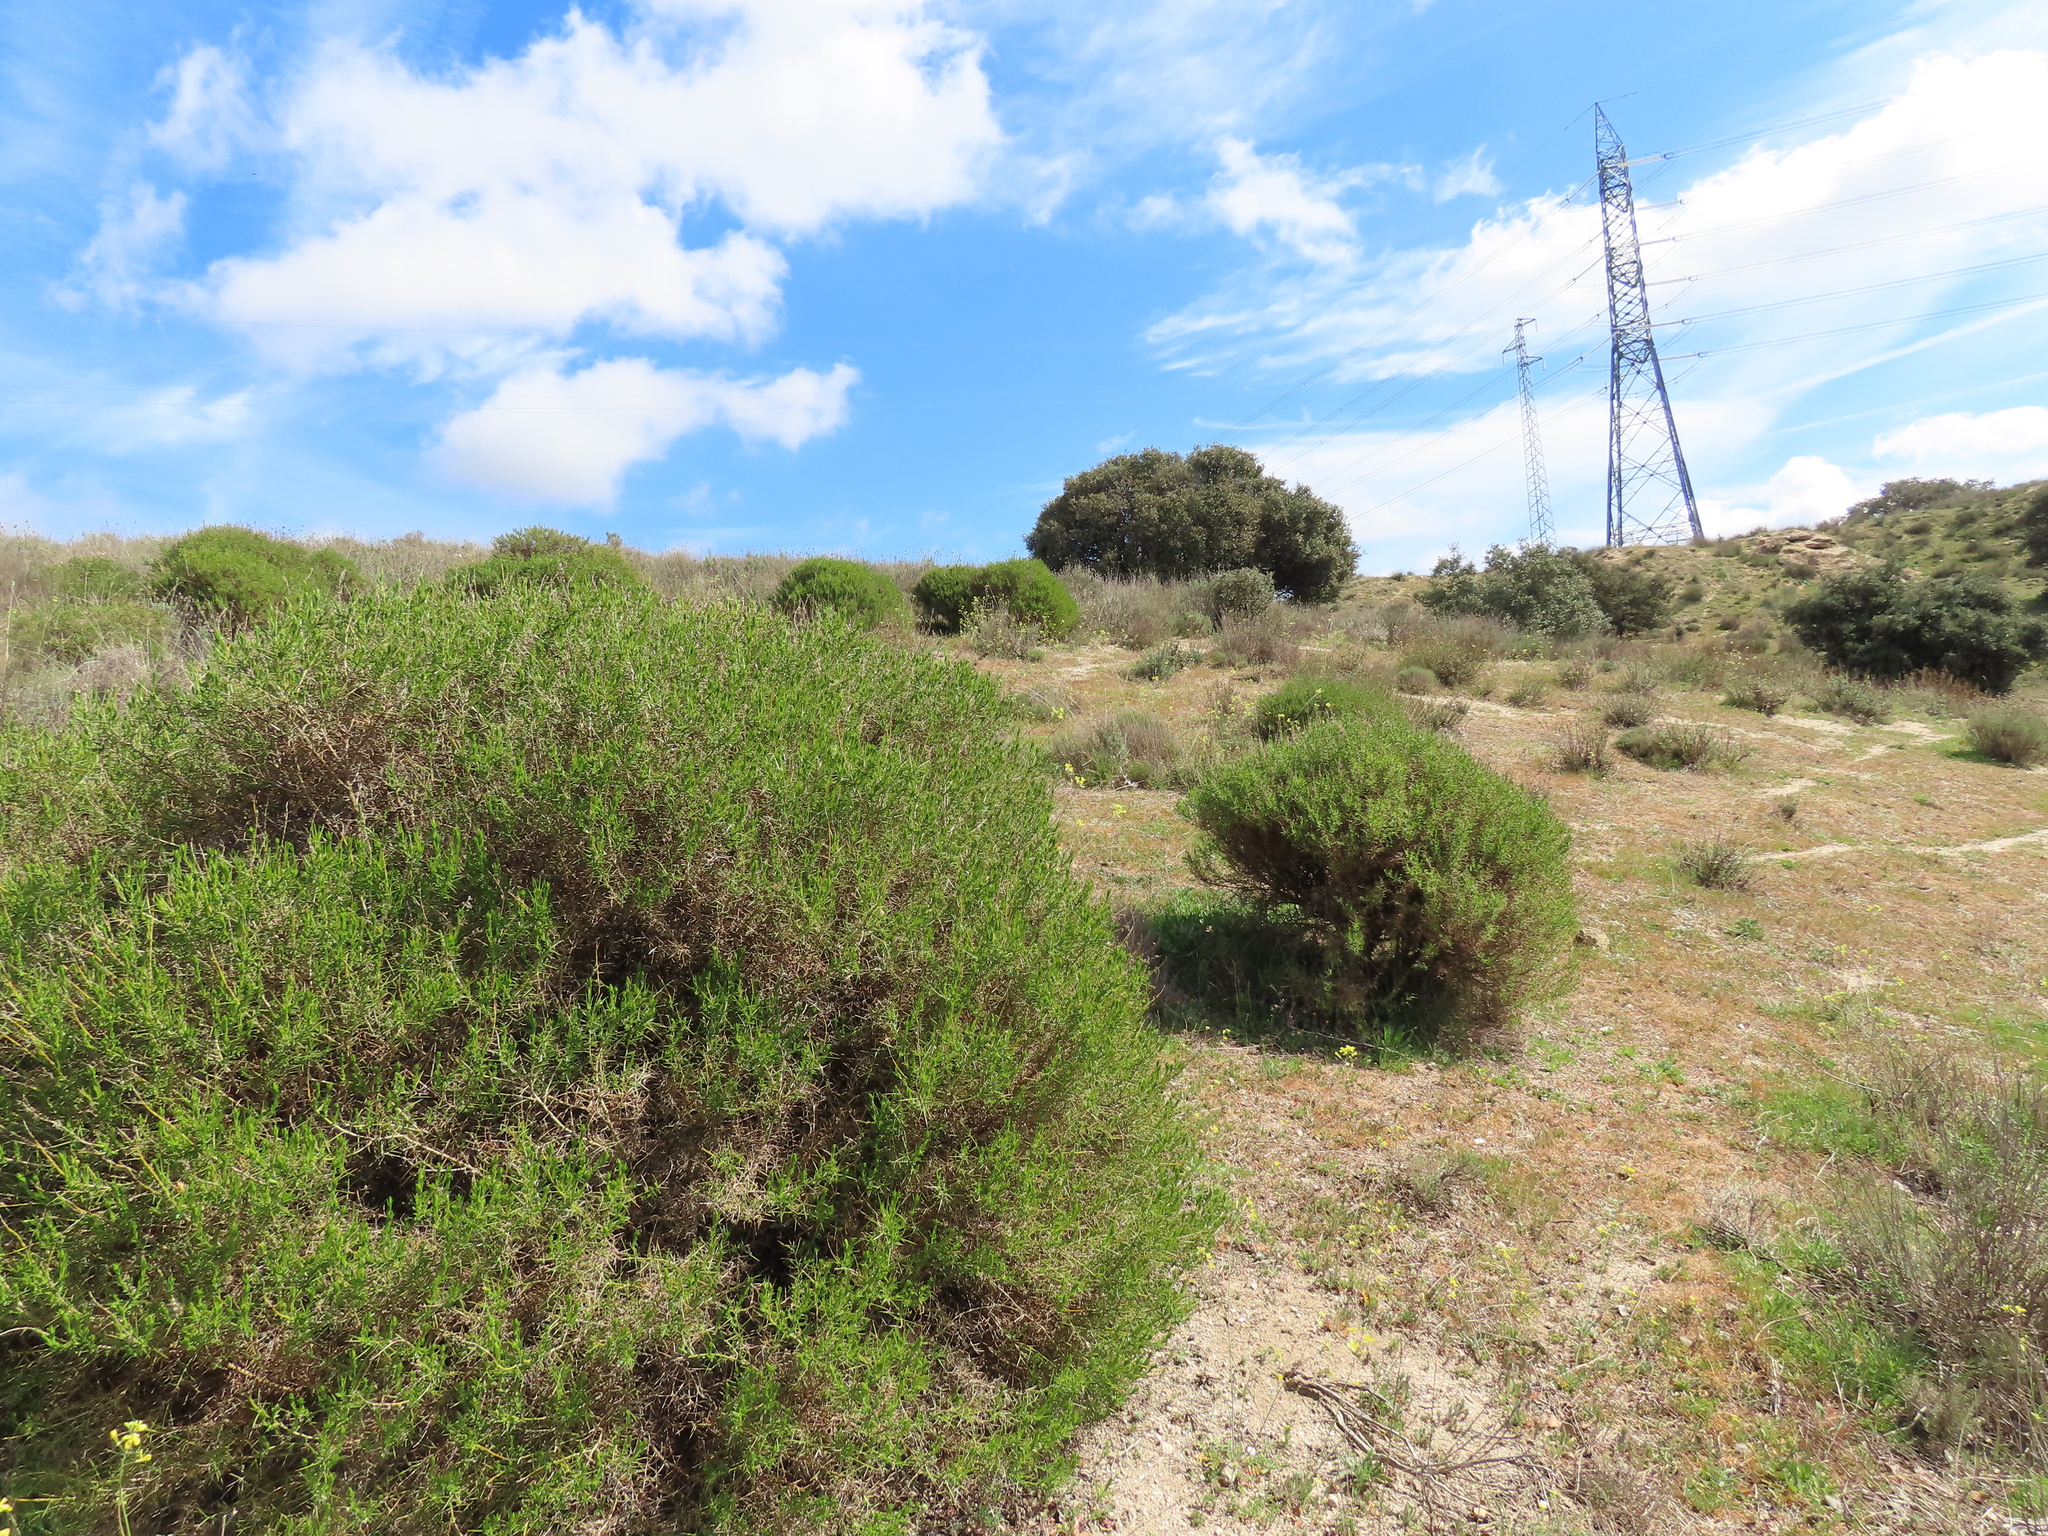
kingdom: Plantae
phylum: Tracheophyta
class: Magnoliopsida
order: Fabales
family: Fabaceae
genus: Genista
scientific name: Genista hirsuta
